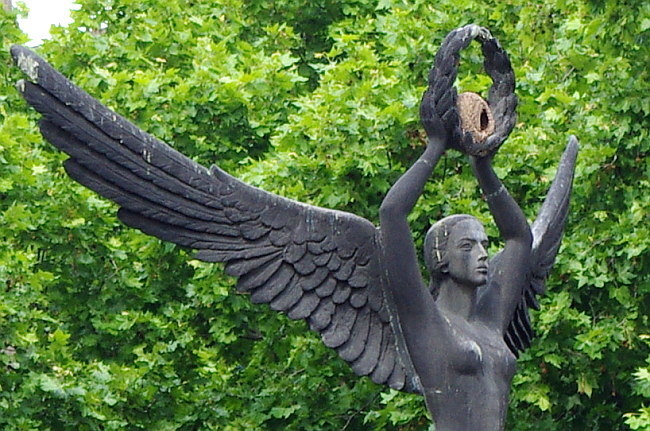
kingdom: Animalia
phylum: Chordata
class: Aves
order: Passeriformes
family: Furnariidae
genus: Furnarius
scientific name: Furnarius rufus
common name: Rufous hornero
